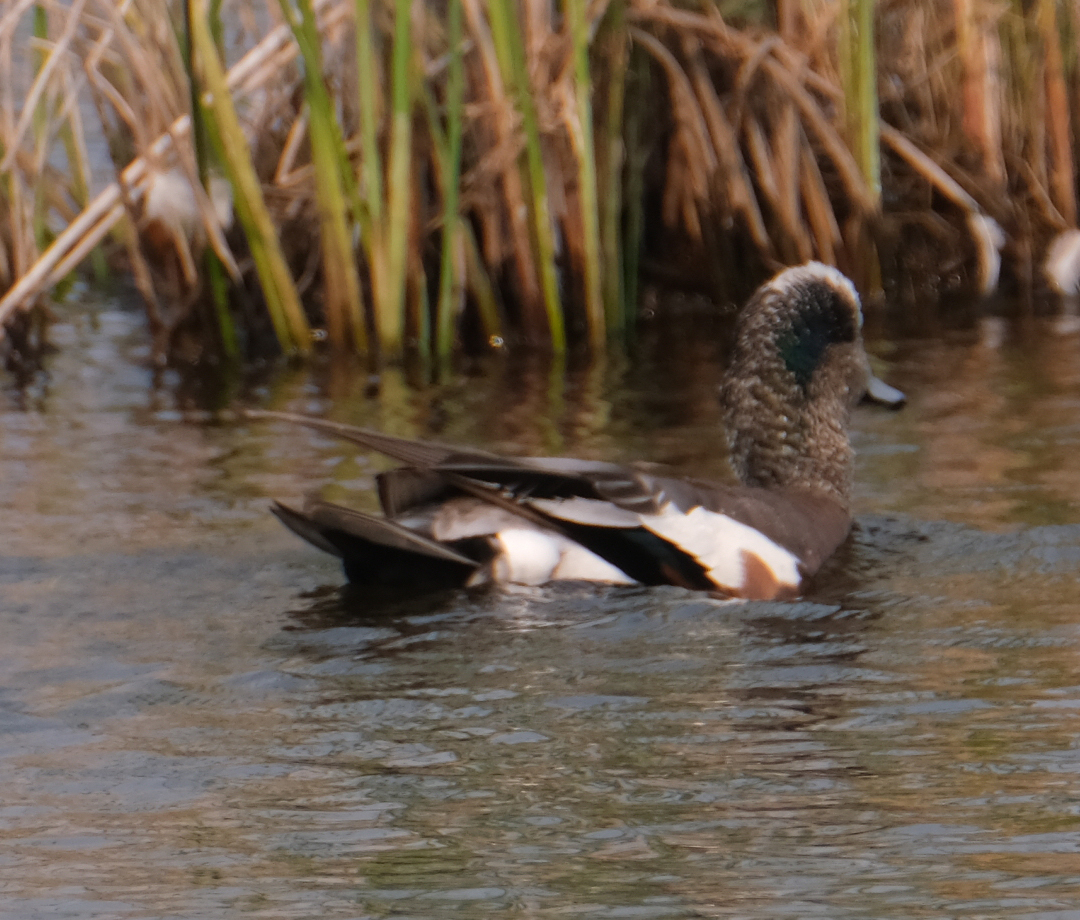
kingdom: Animalia
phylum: Chordata
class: Aves
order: Anseriformes
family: Anatidae
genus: Mareca
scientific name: Mareca americana
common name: American wigeon
